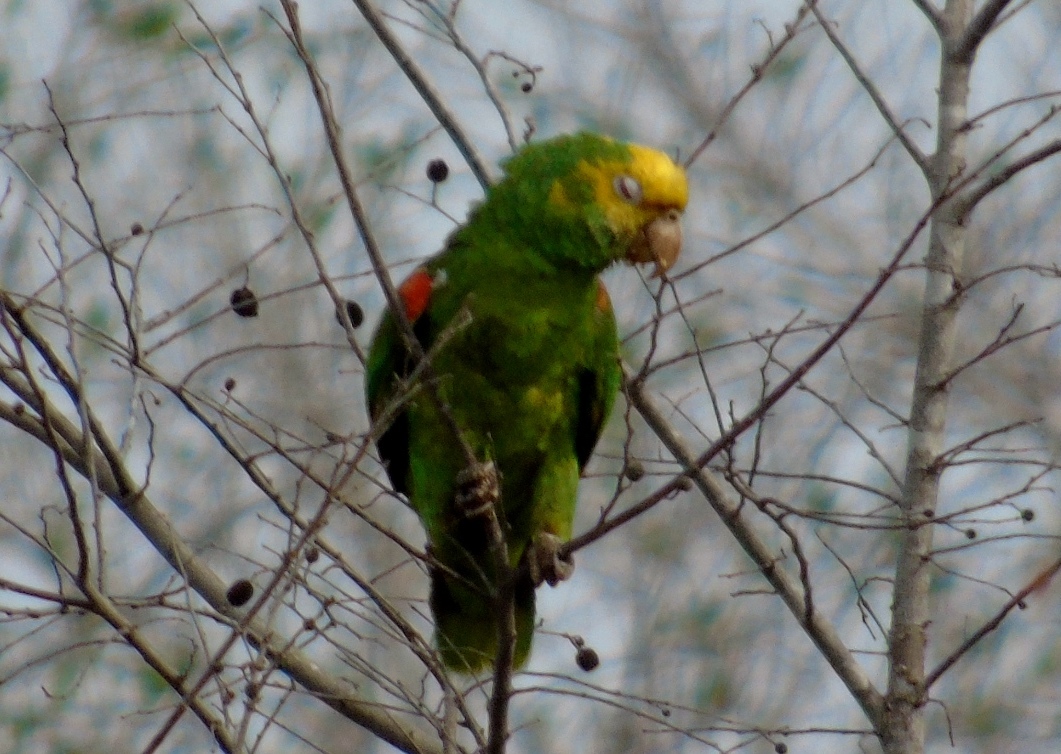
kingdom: Animalia
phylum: Chordata
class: Aves
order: Psittaciformes
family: Psittacidae
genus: Amazona
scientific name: Amazona oratrix
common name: Yellow-headed amazon
